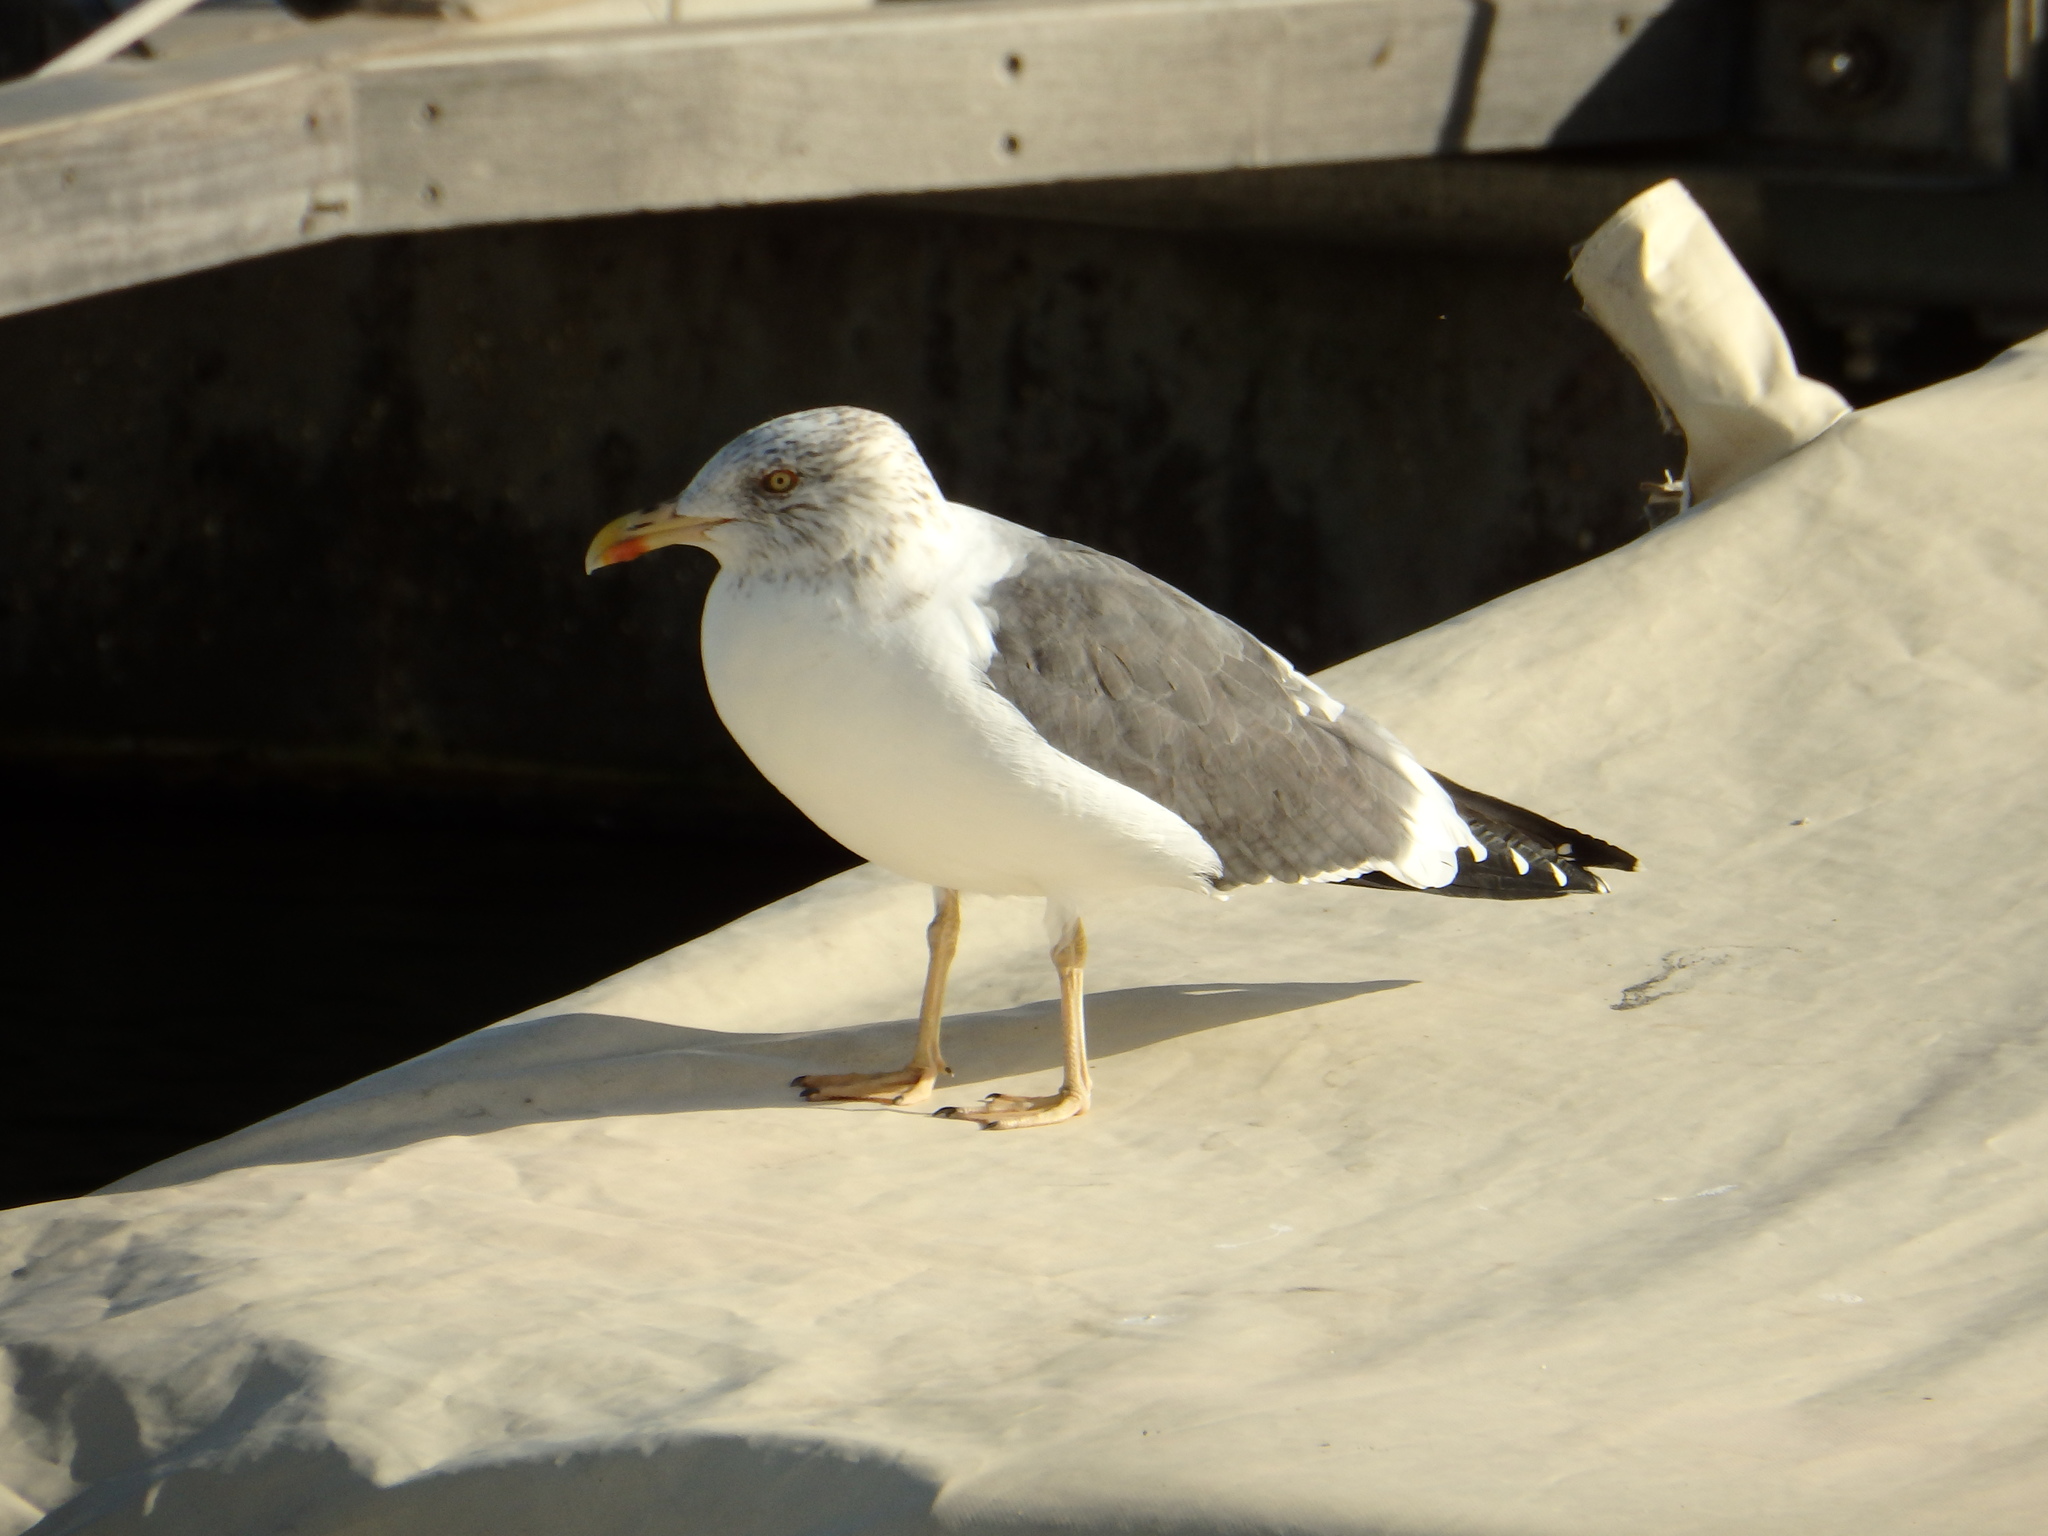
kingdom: Animalia
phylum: Chordata
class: Aves
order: Charadriiformes
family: Laridae
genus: Larus
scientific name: Larus michahellis
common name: Yellow-legged gull
